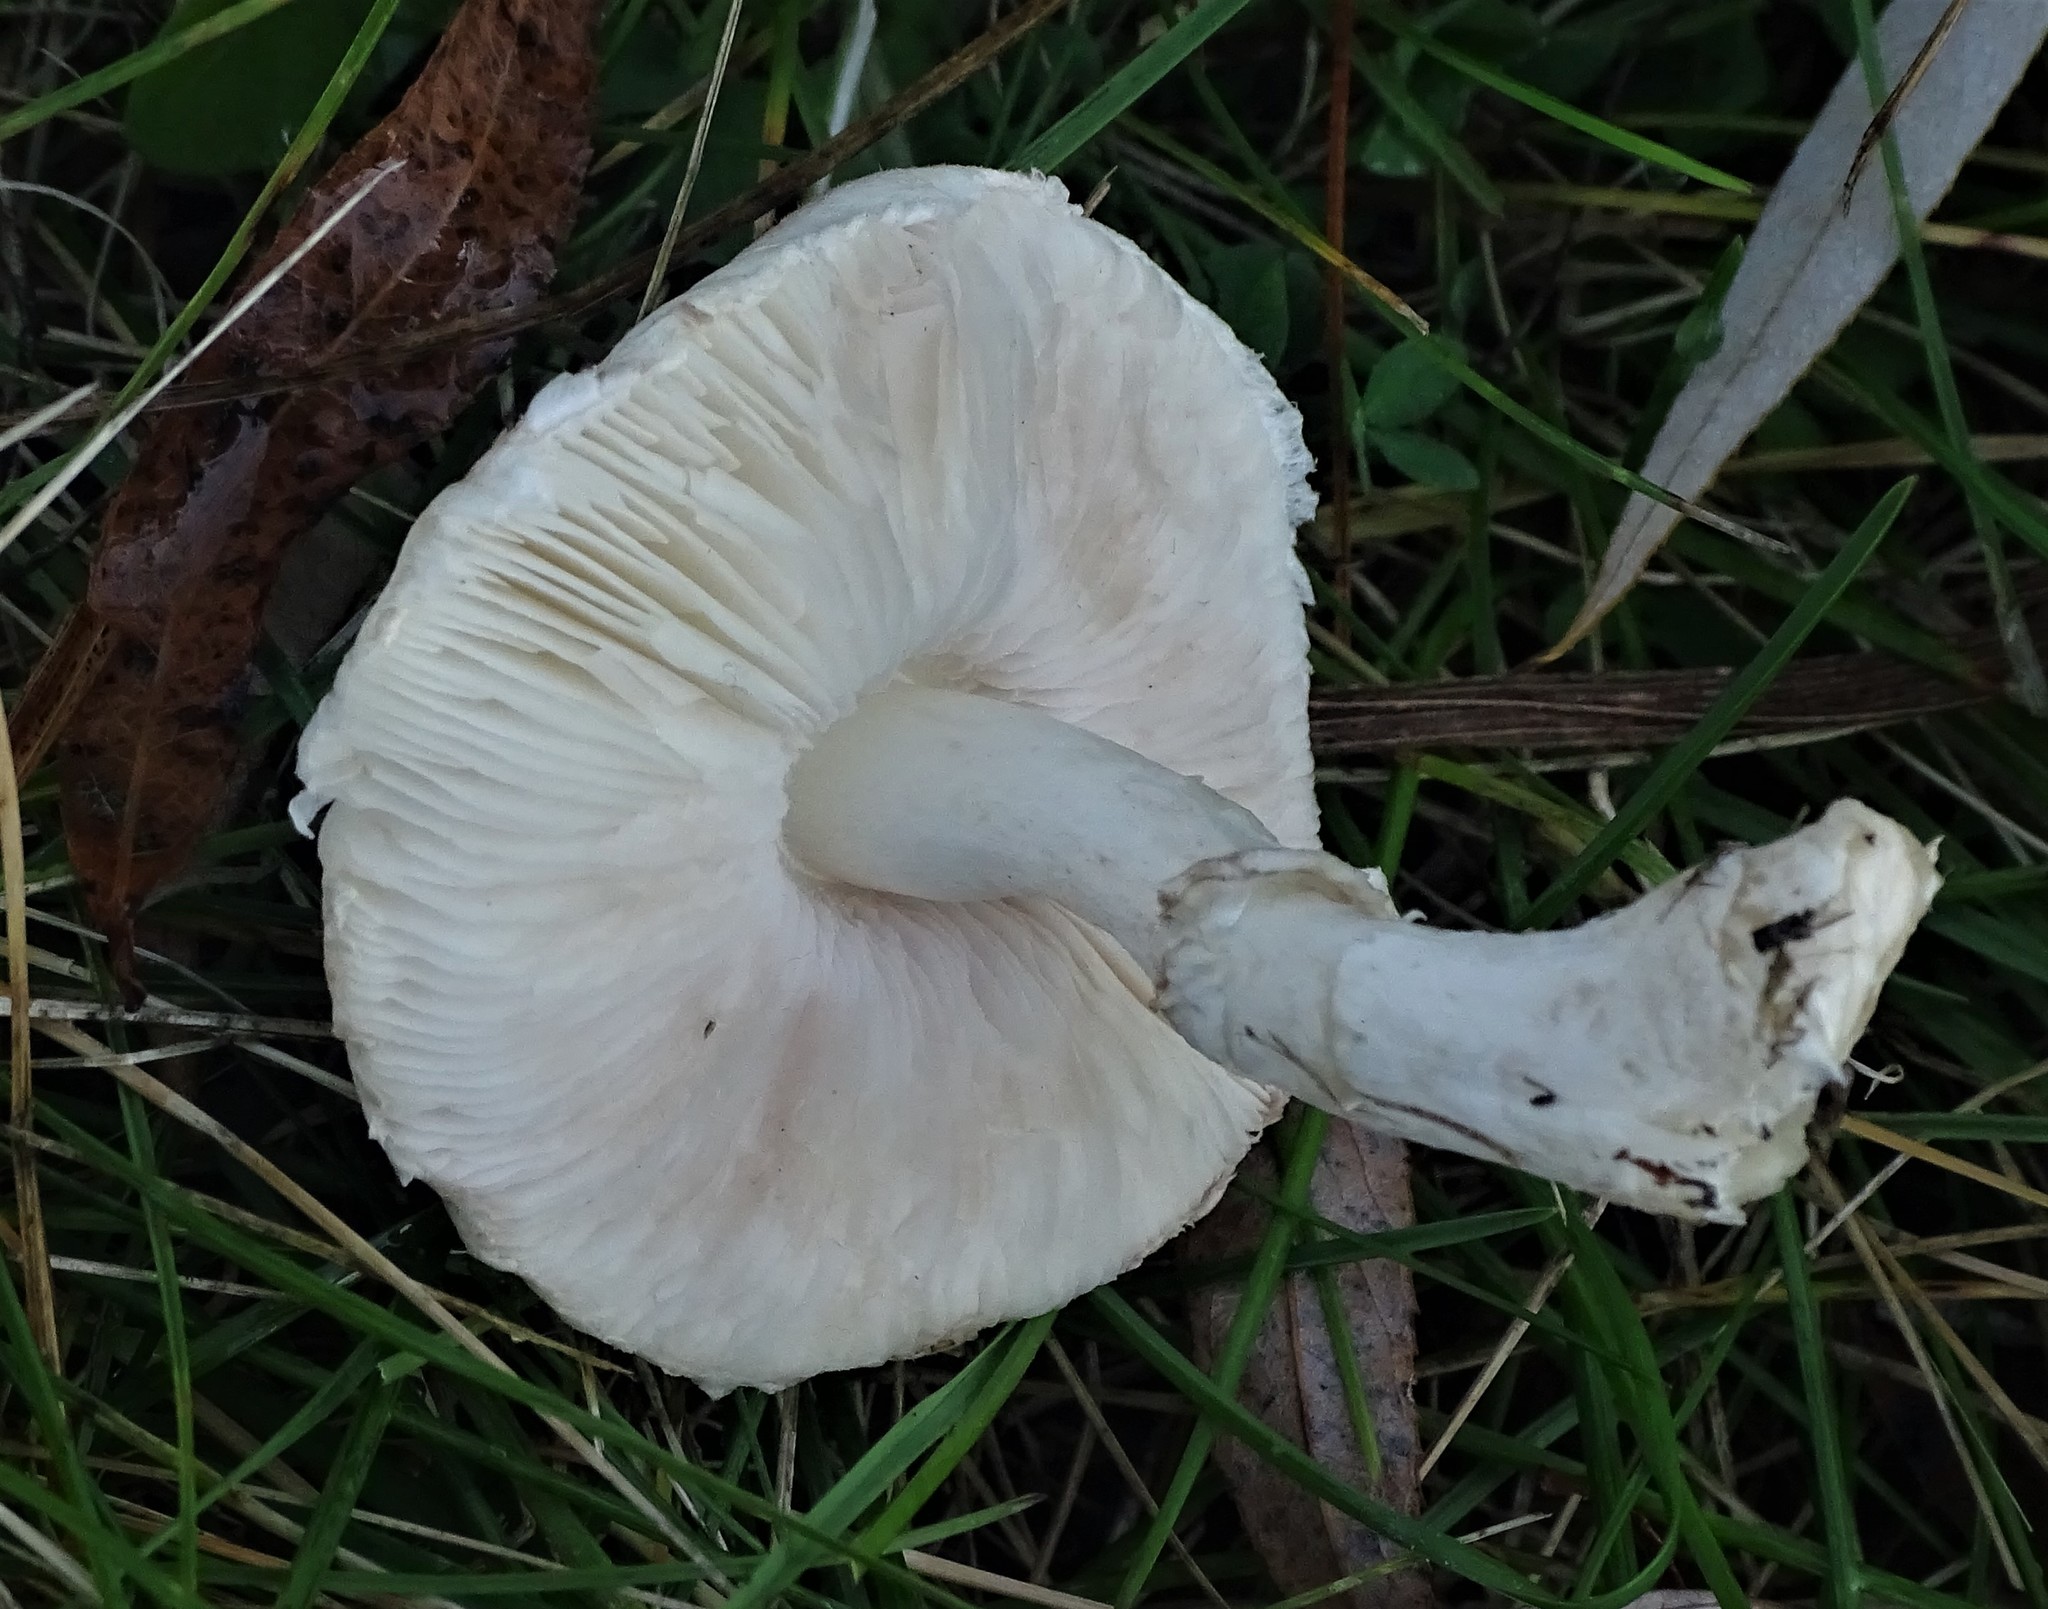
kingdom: Fungi
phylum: Basidiomycota
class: Agaricomycetes
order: Agaricales
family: Agaricaceae
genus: Leucoagaricus
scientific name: Leucoagaricus leucothites
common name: White dapperling
